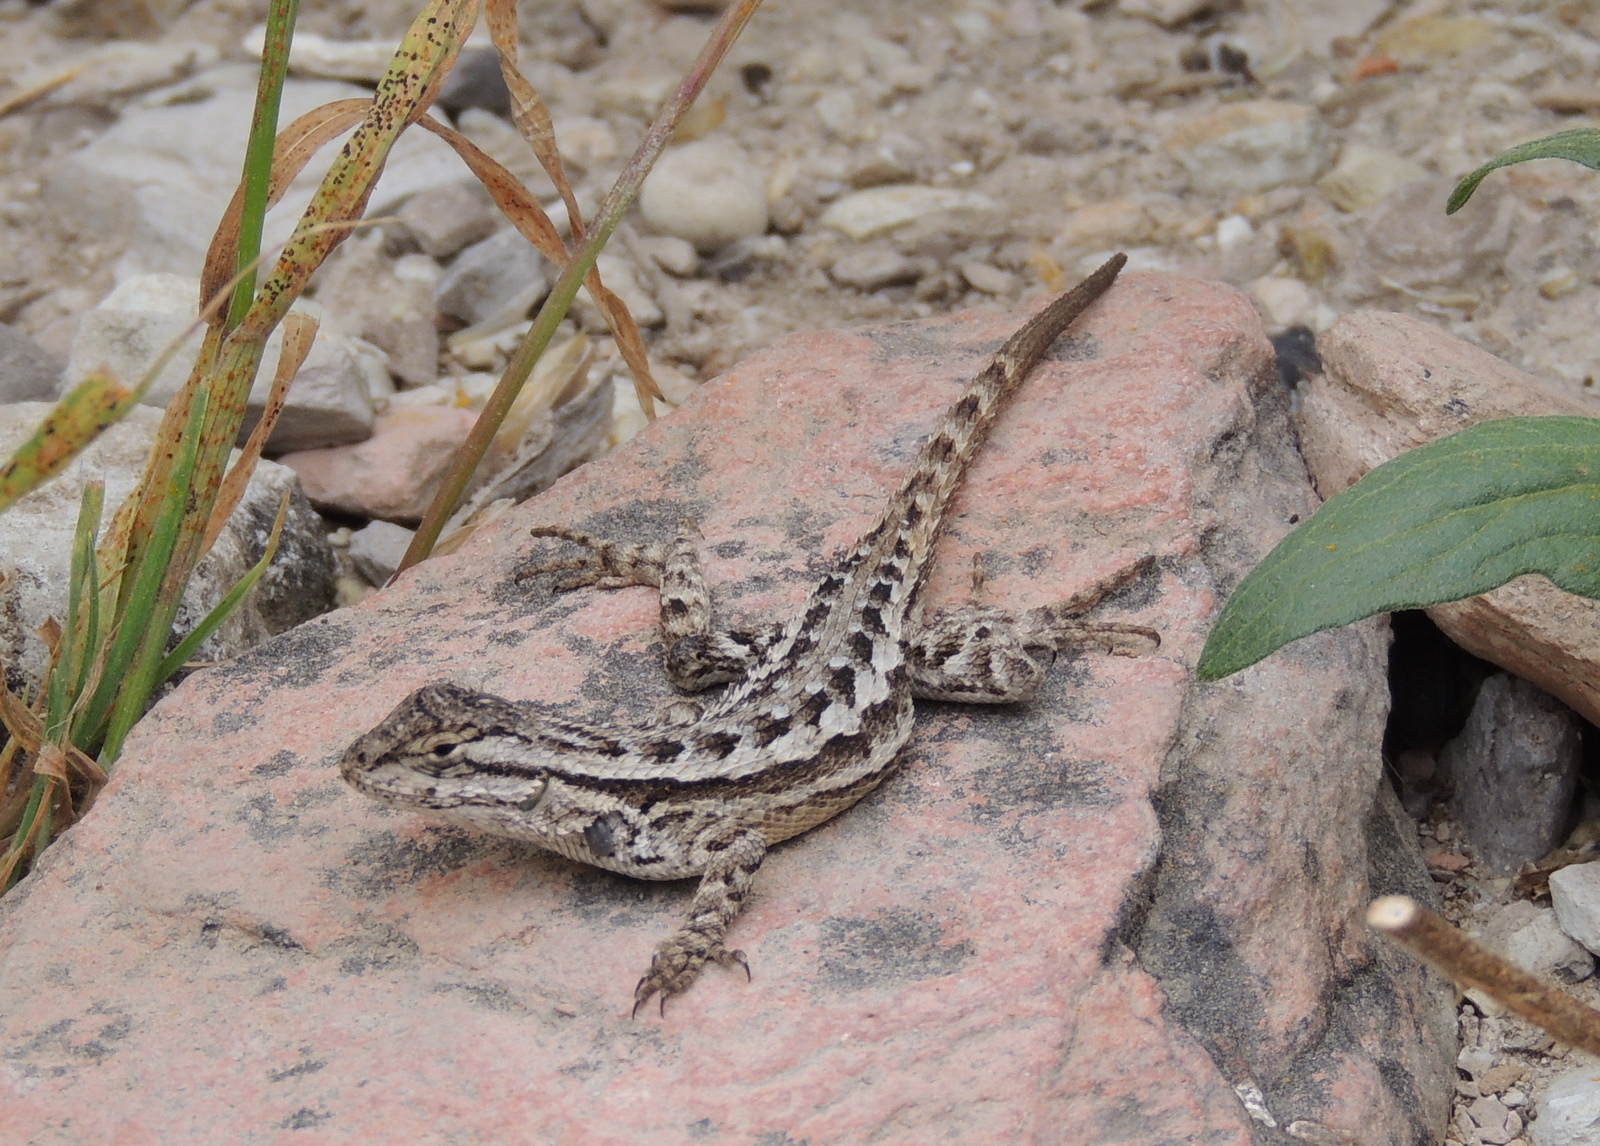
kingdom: Animalia
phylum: Chordata
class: Squamata
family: Phrynosomatidae
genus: Sceloporus
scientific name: Sceloporus occidentalis
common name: Western fence lizard
